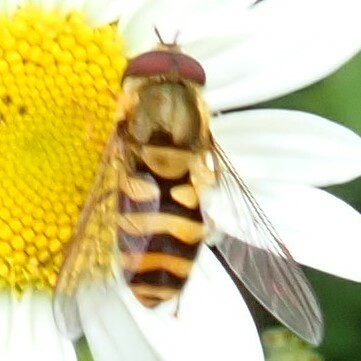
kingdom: Animalia
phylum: Arthropoda
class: Insecta
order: Diptera
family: Syrphidae
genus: Eristalis
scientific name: Eristalis tenax
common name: Drone fly
